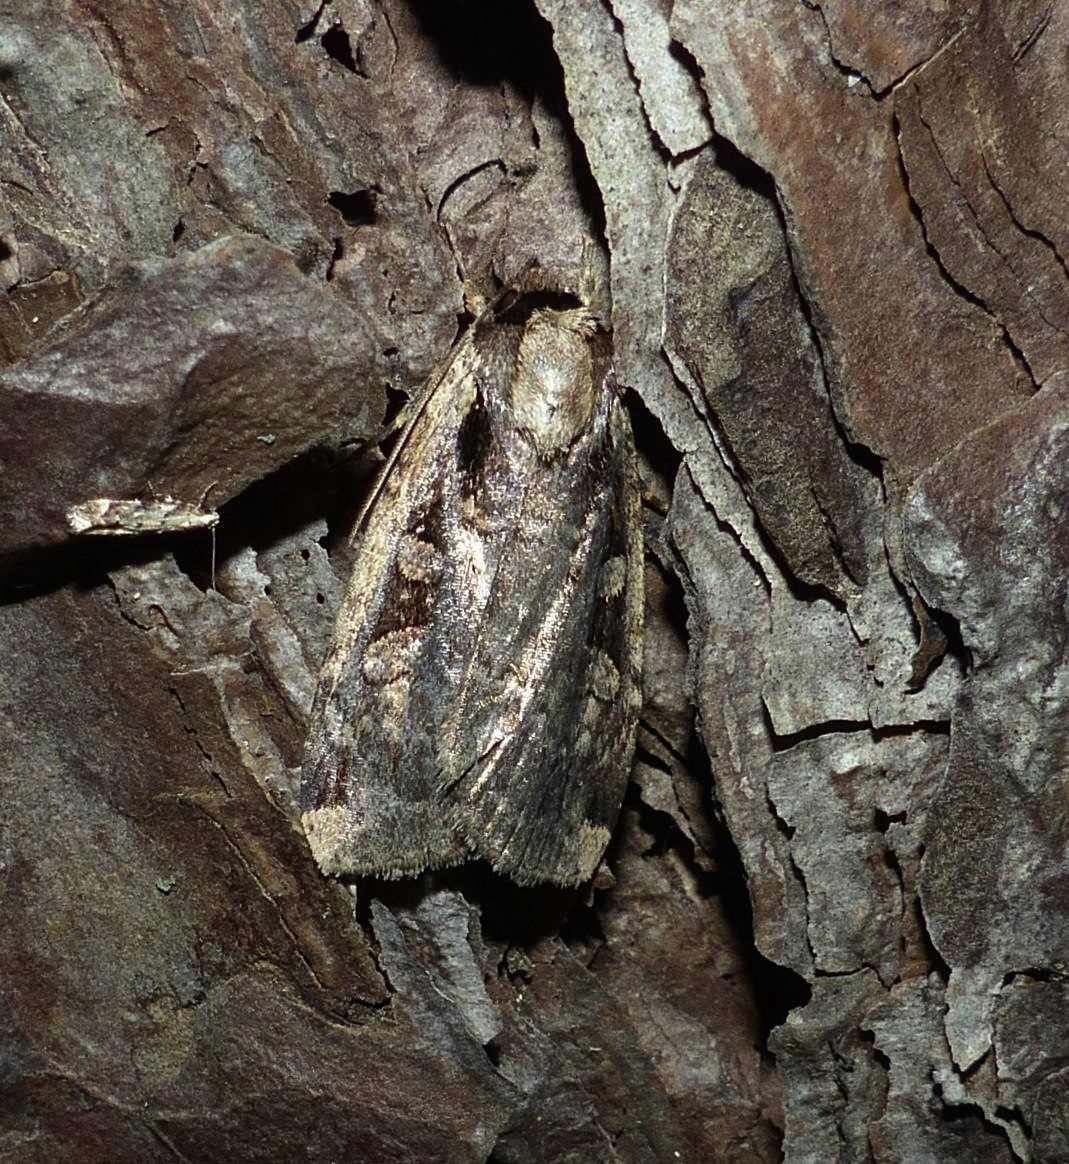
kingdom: Animalia
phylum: Arthropoda
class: Insecta
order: Lepidoptera
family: Noctuidae
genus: Eueretagrotis
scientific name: Eueretagrotis sigmoides
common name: Sigmoid dart
